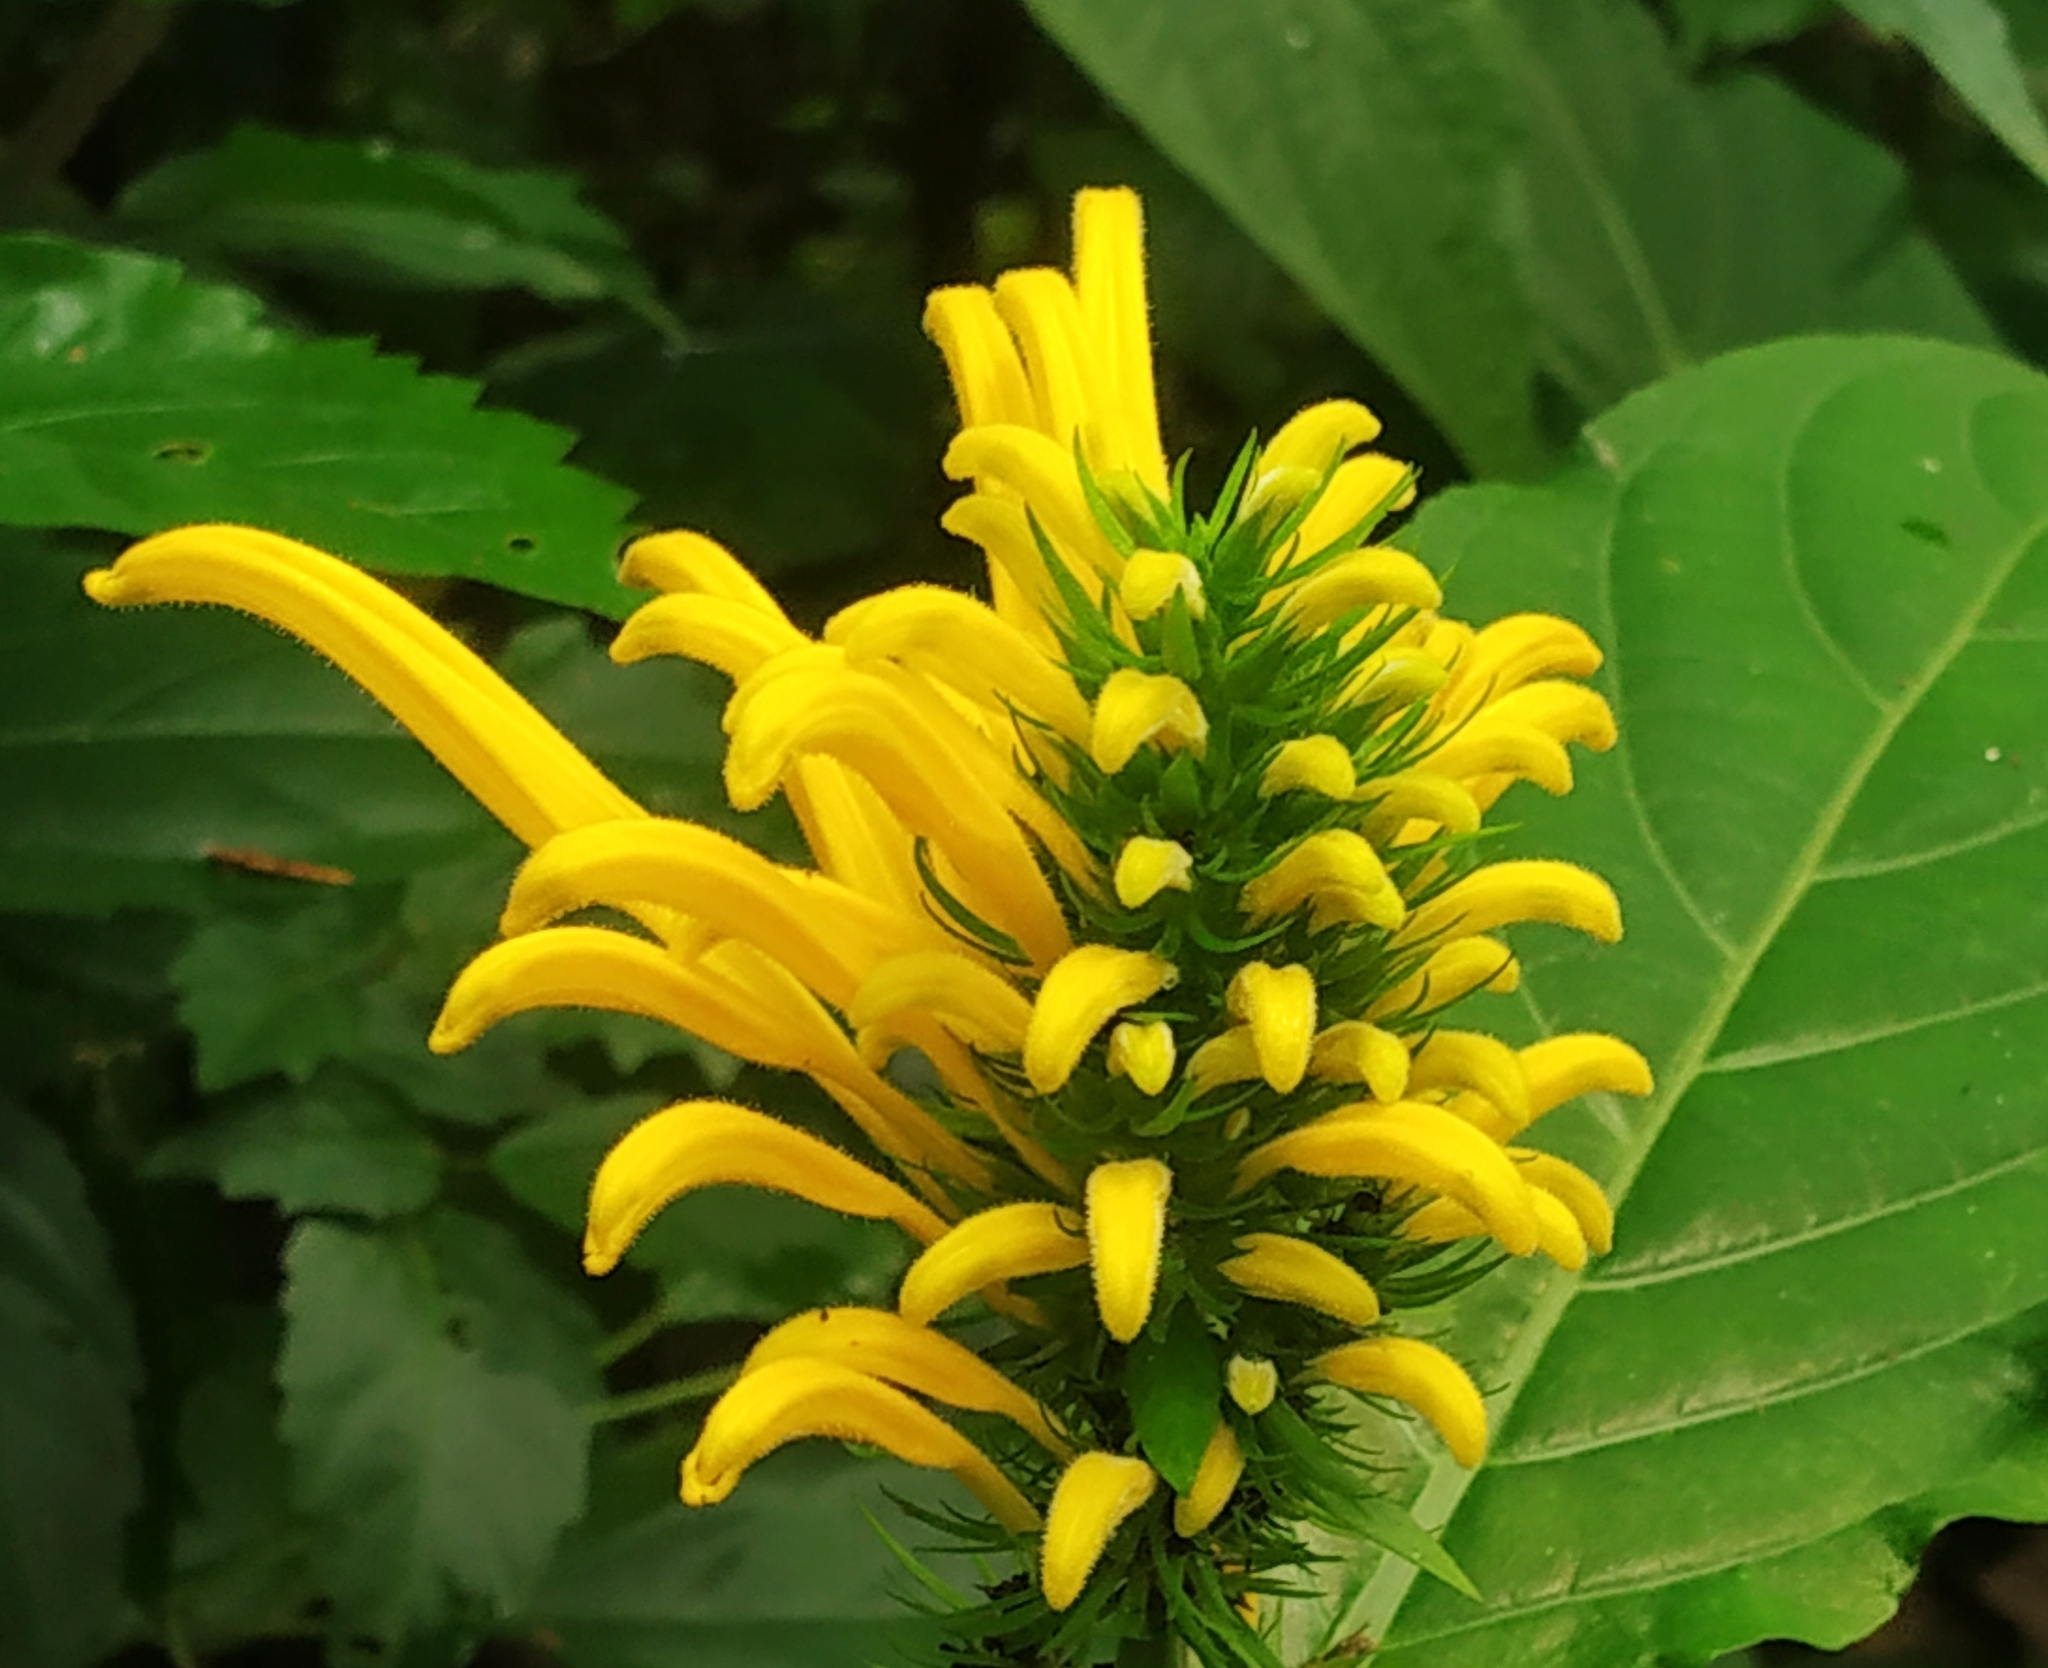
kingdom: Plantae
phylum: Tracheophyta
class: Magnoliopsida
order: Lamiales
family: Acanthaceae
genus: Justicia
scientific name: Justicia aurea
